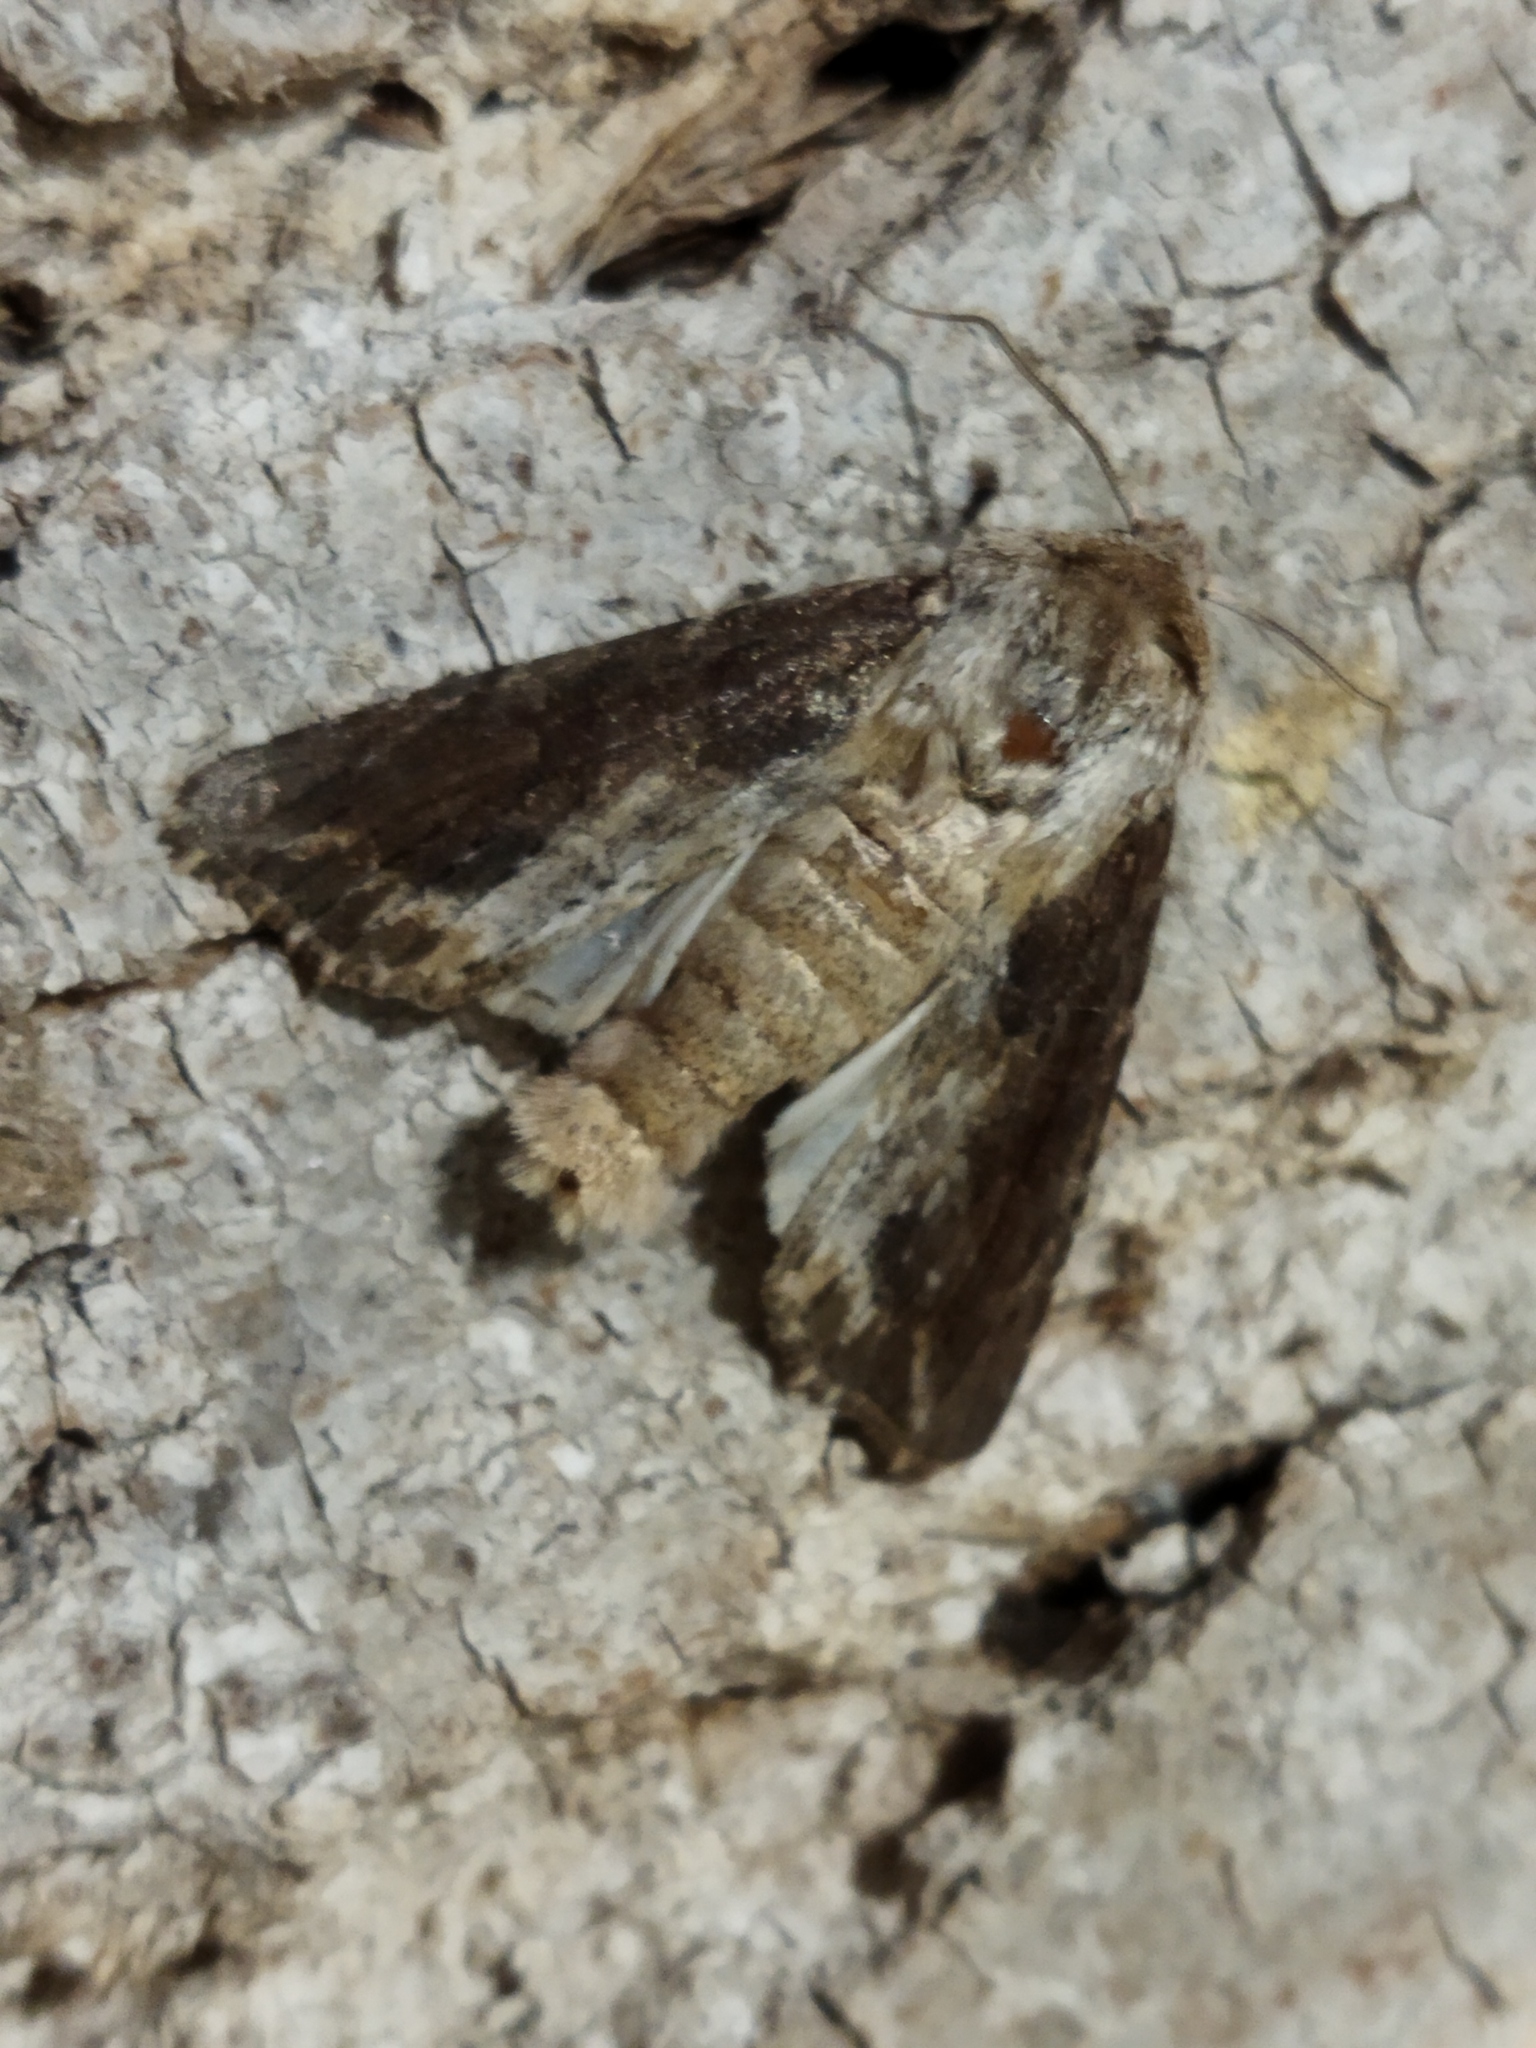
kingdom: Animalia
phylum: Arthropoda
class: Insecta
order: Lepidoptera
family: Noctuidae
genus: Egira
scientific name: Egira conspicillaris
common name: Silver cloud
